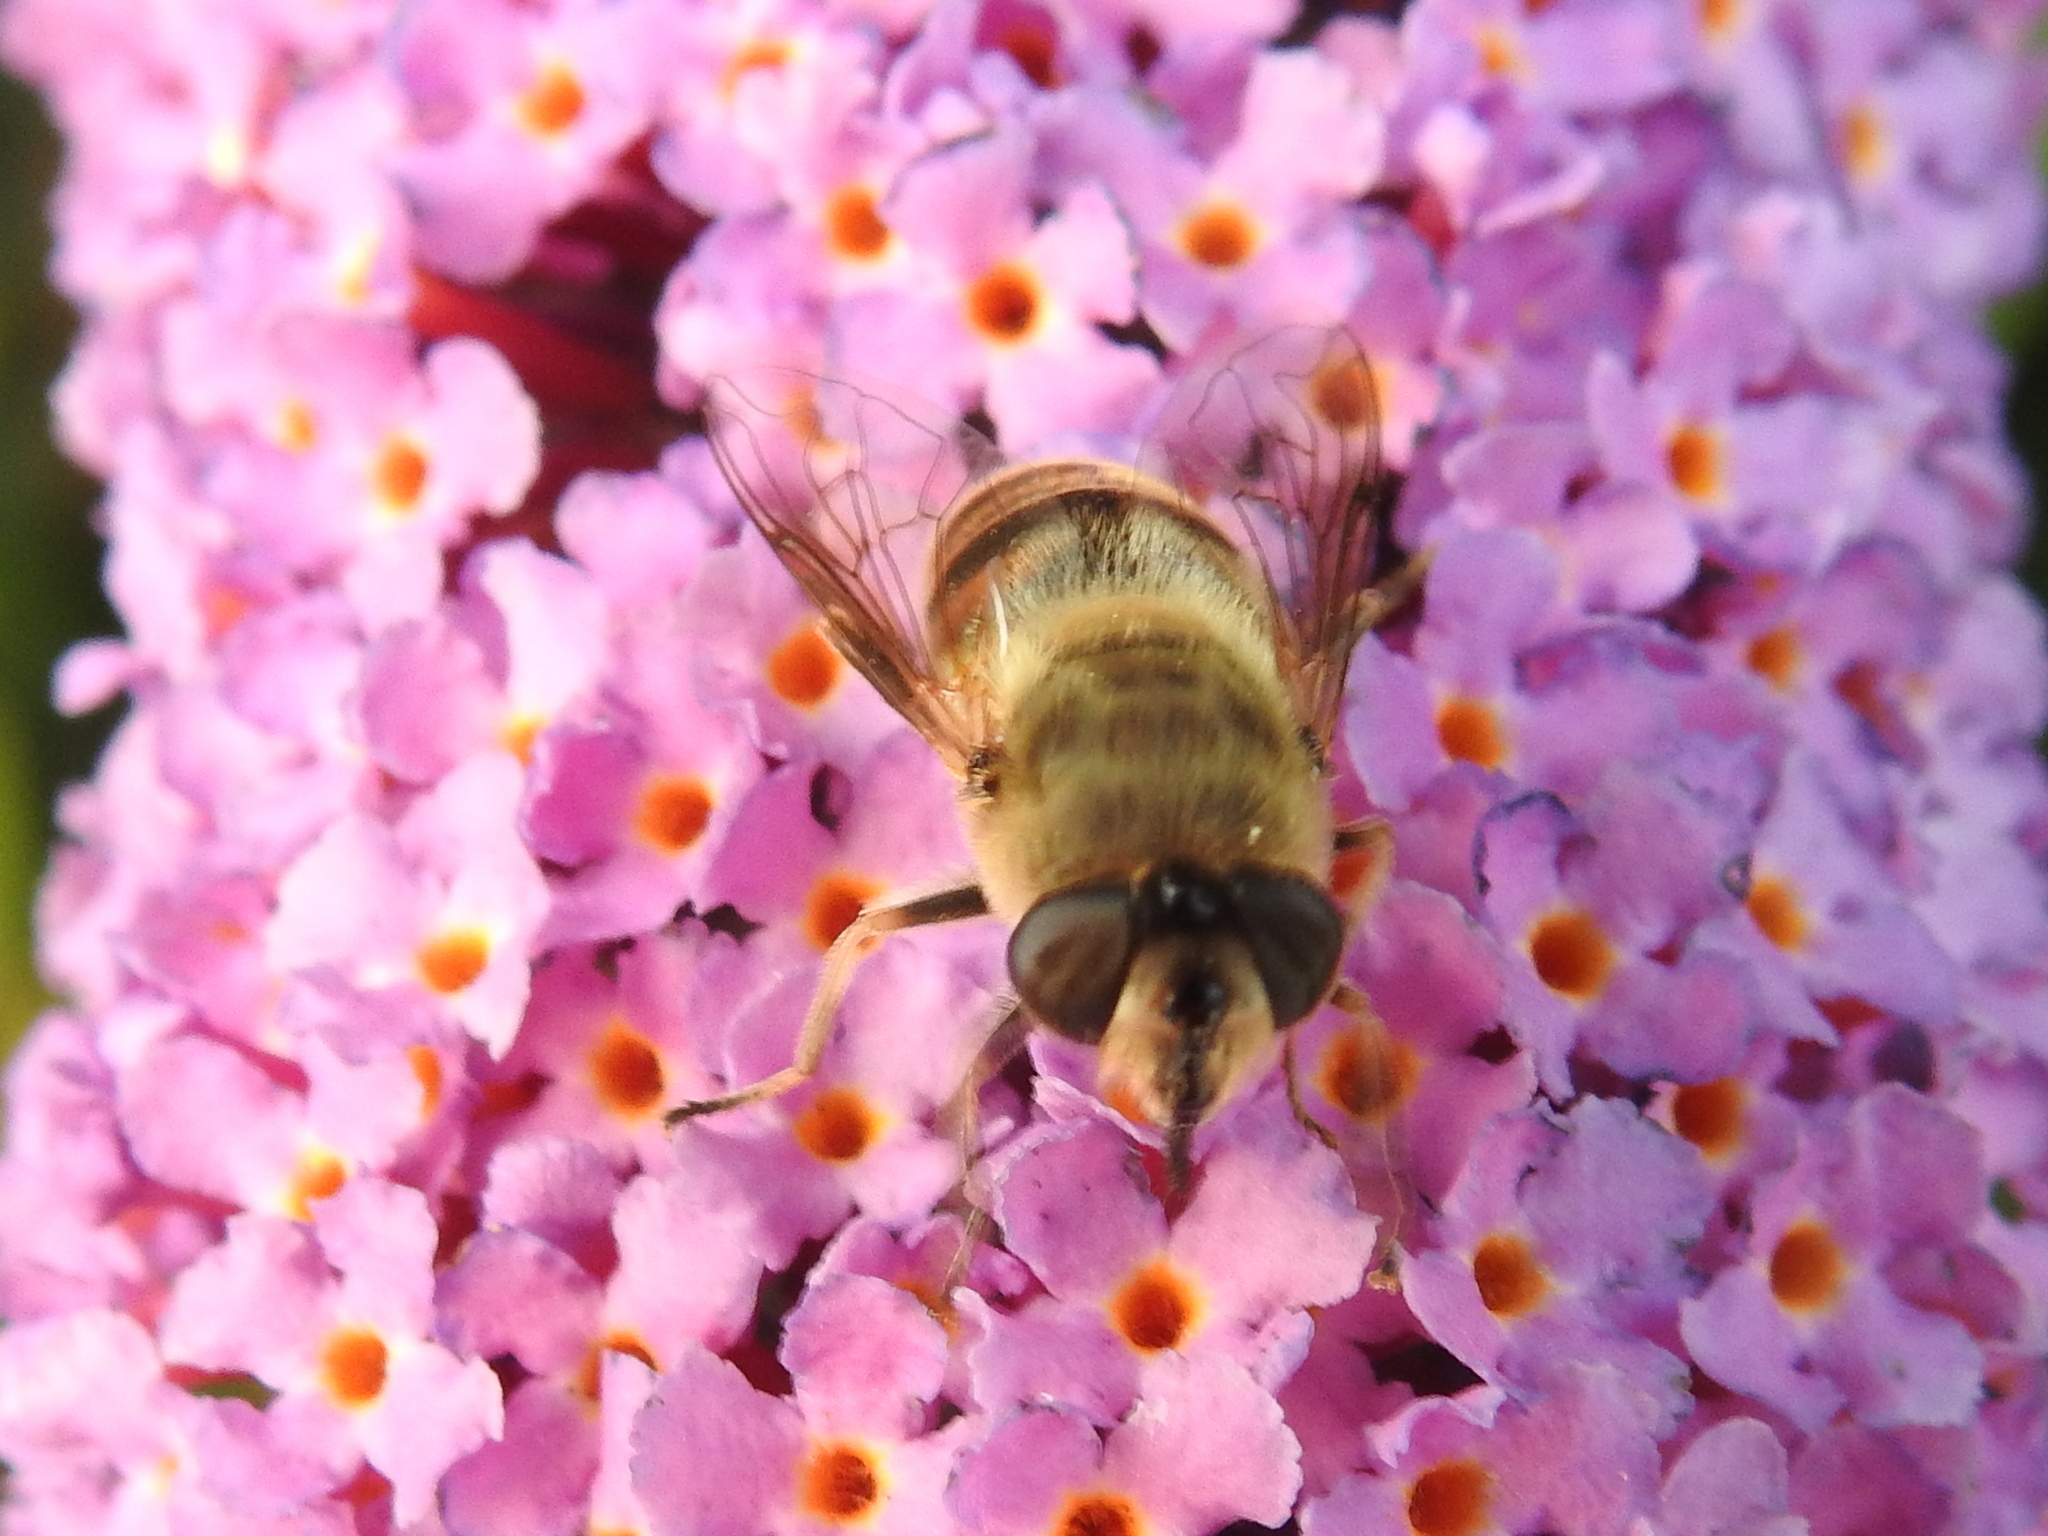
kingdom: Animalia
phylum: Arthropoda
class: Insecta
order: Diptera
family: Syrphidae
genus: Eristalis
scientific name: Eristalis tenax
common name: Drone fly
